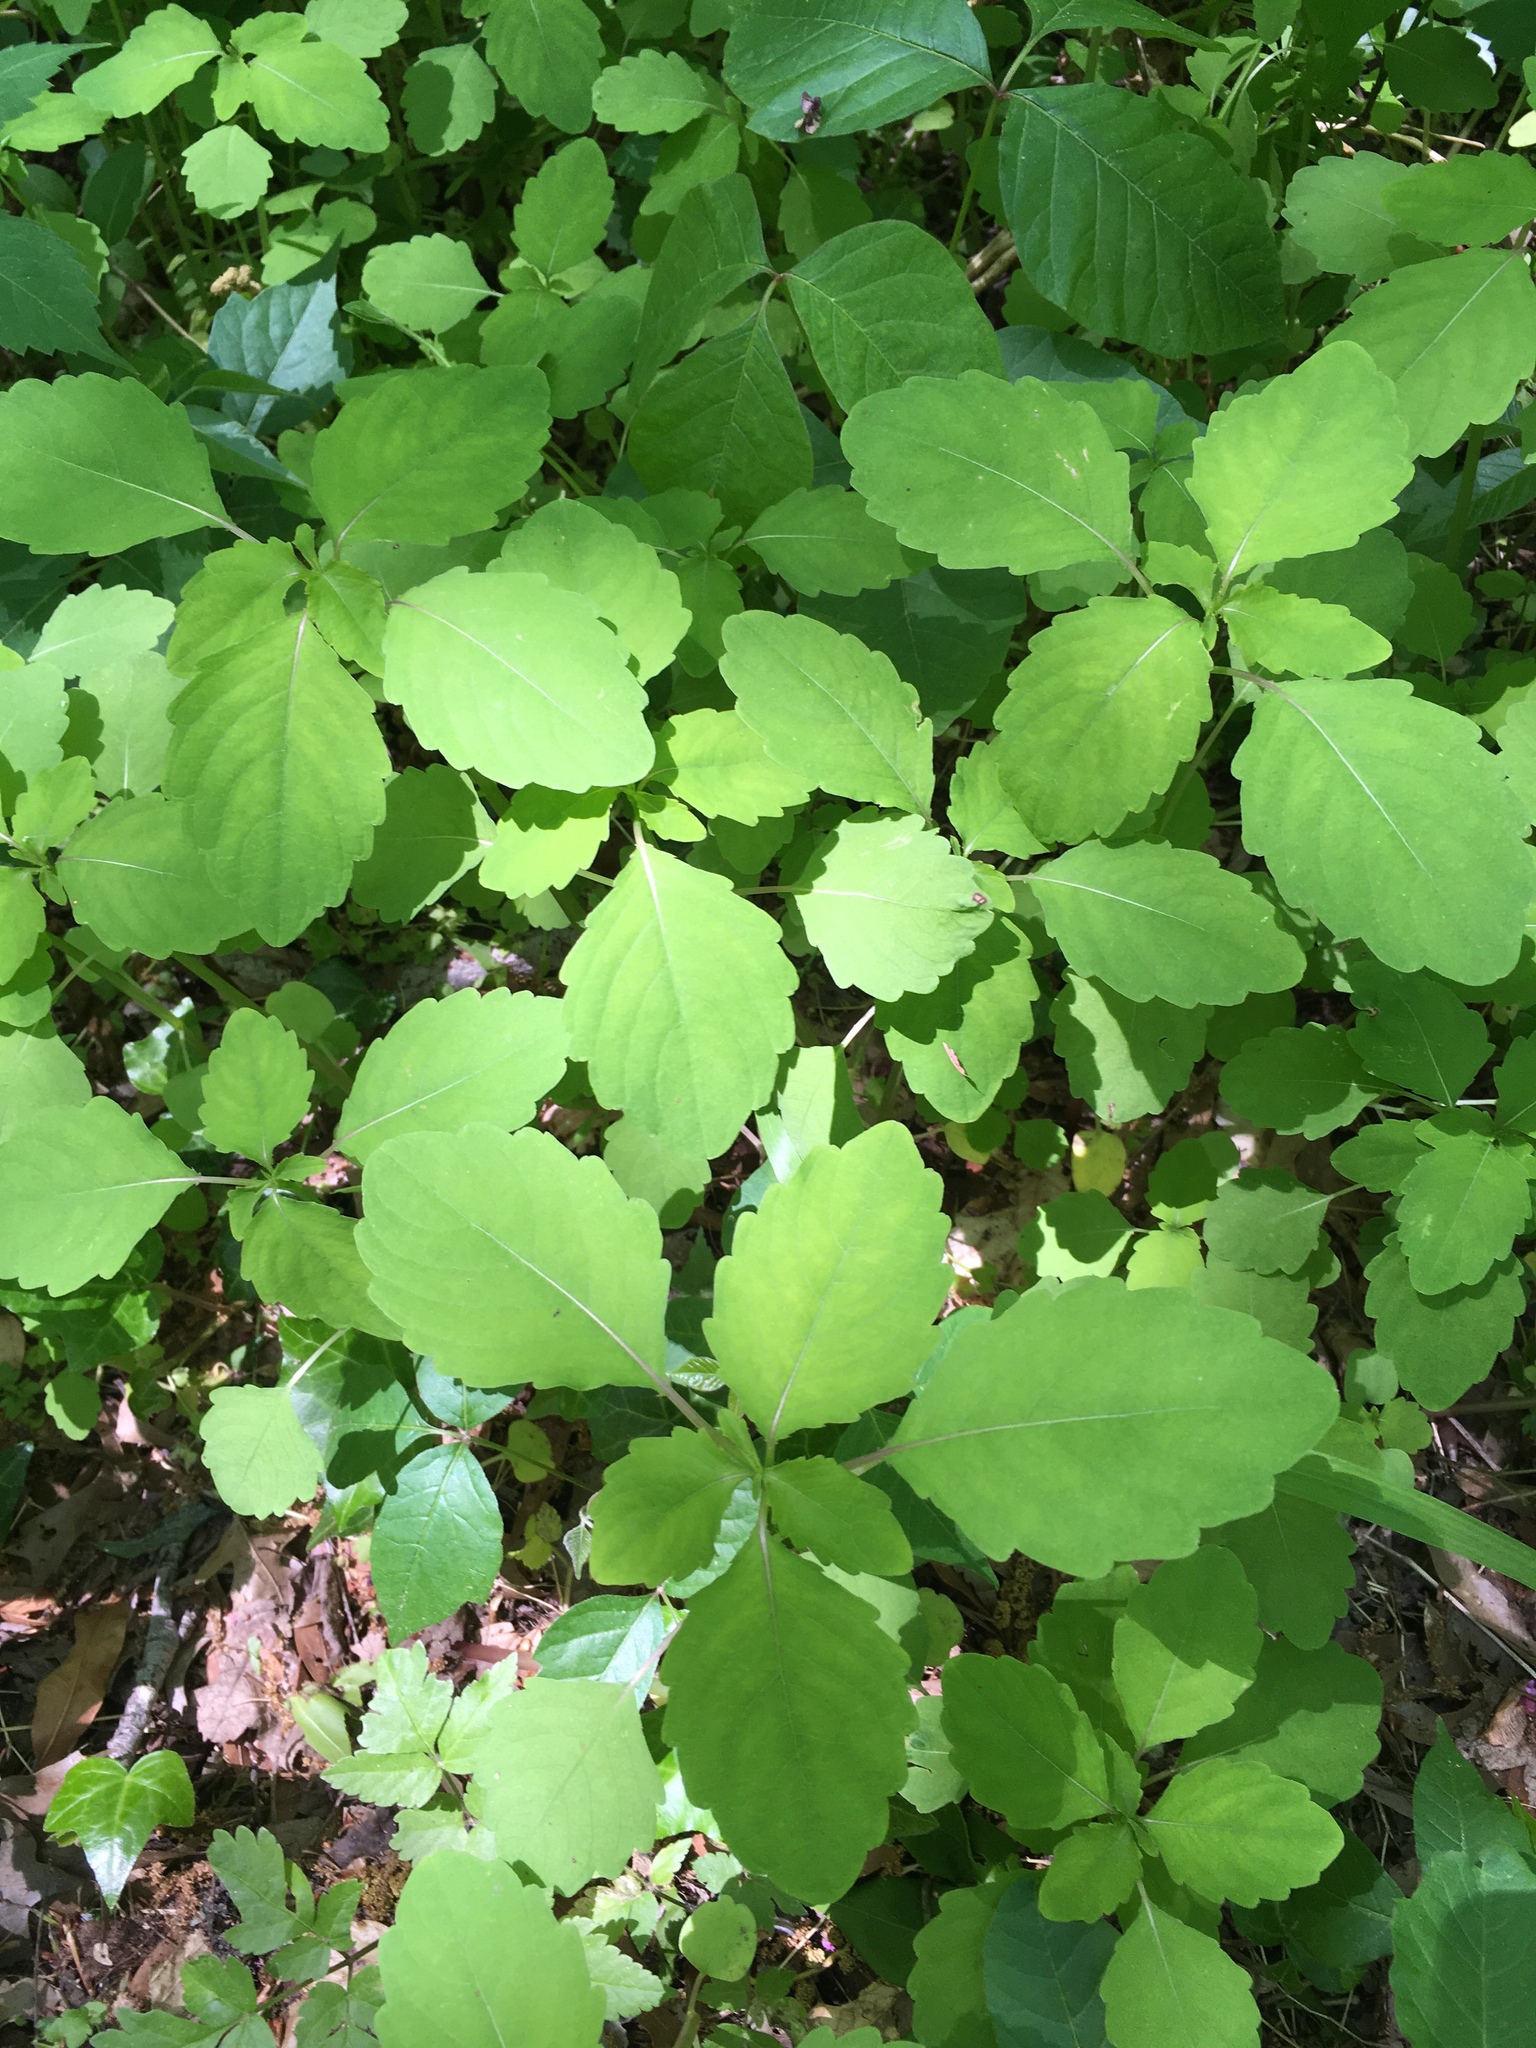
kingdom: Plantae
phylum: Tracheophyta
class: Magnoliopsida
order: Ericales
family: Balsaminaceae
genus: Impatiens
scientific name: Impatiens capensis
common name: Orange balsam
